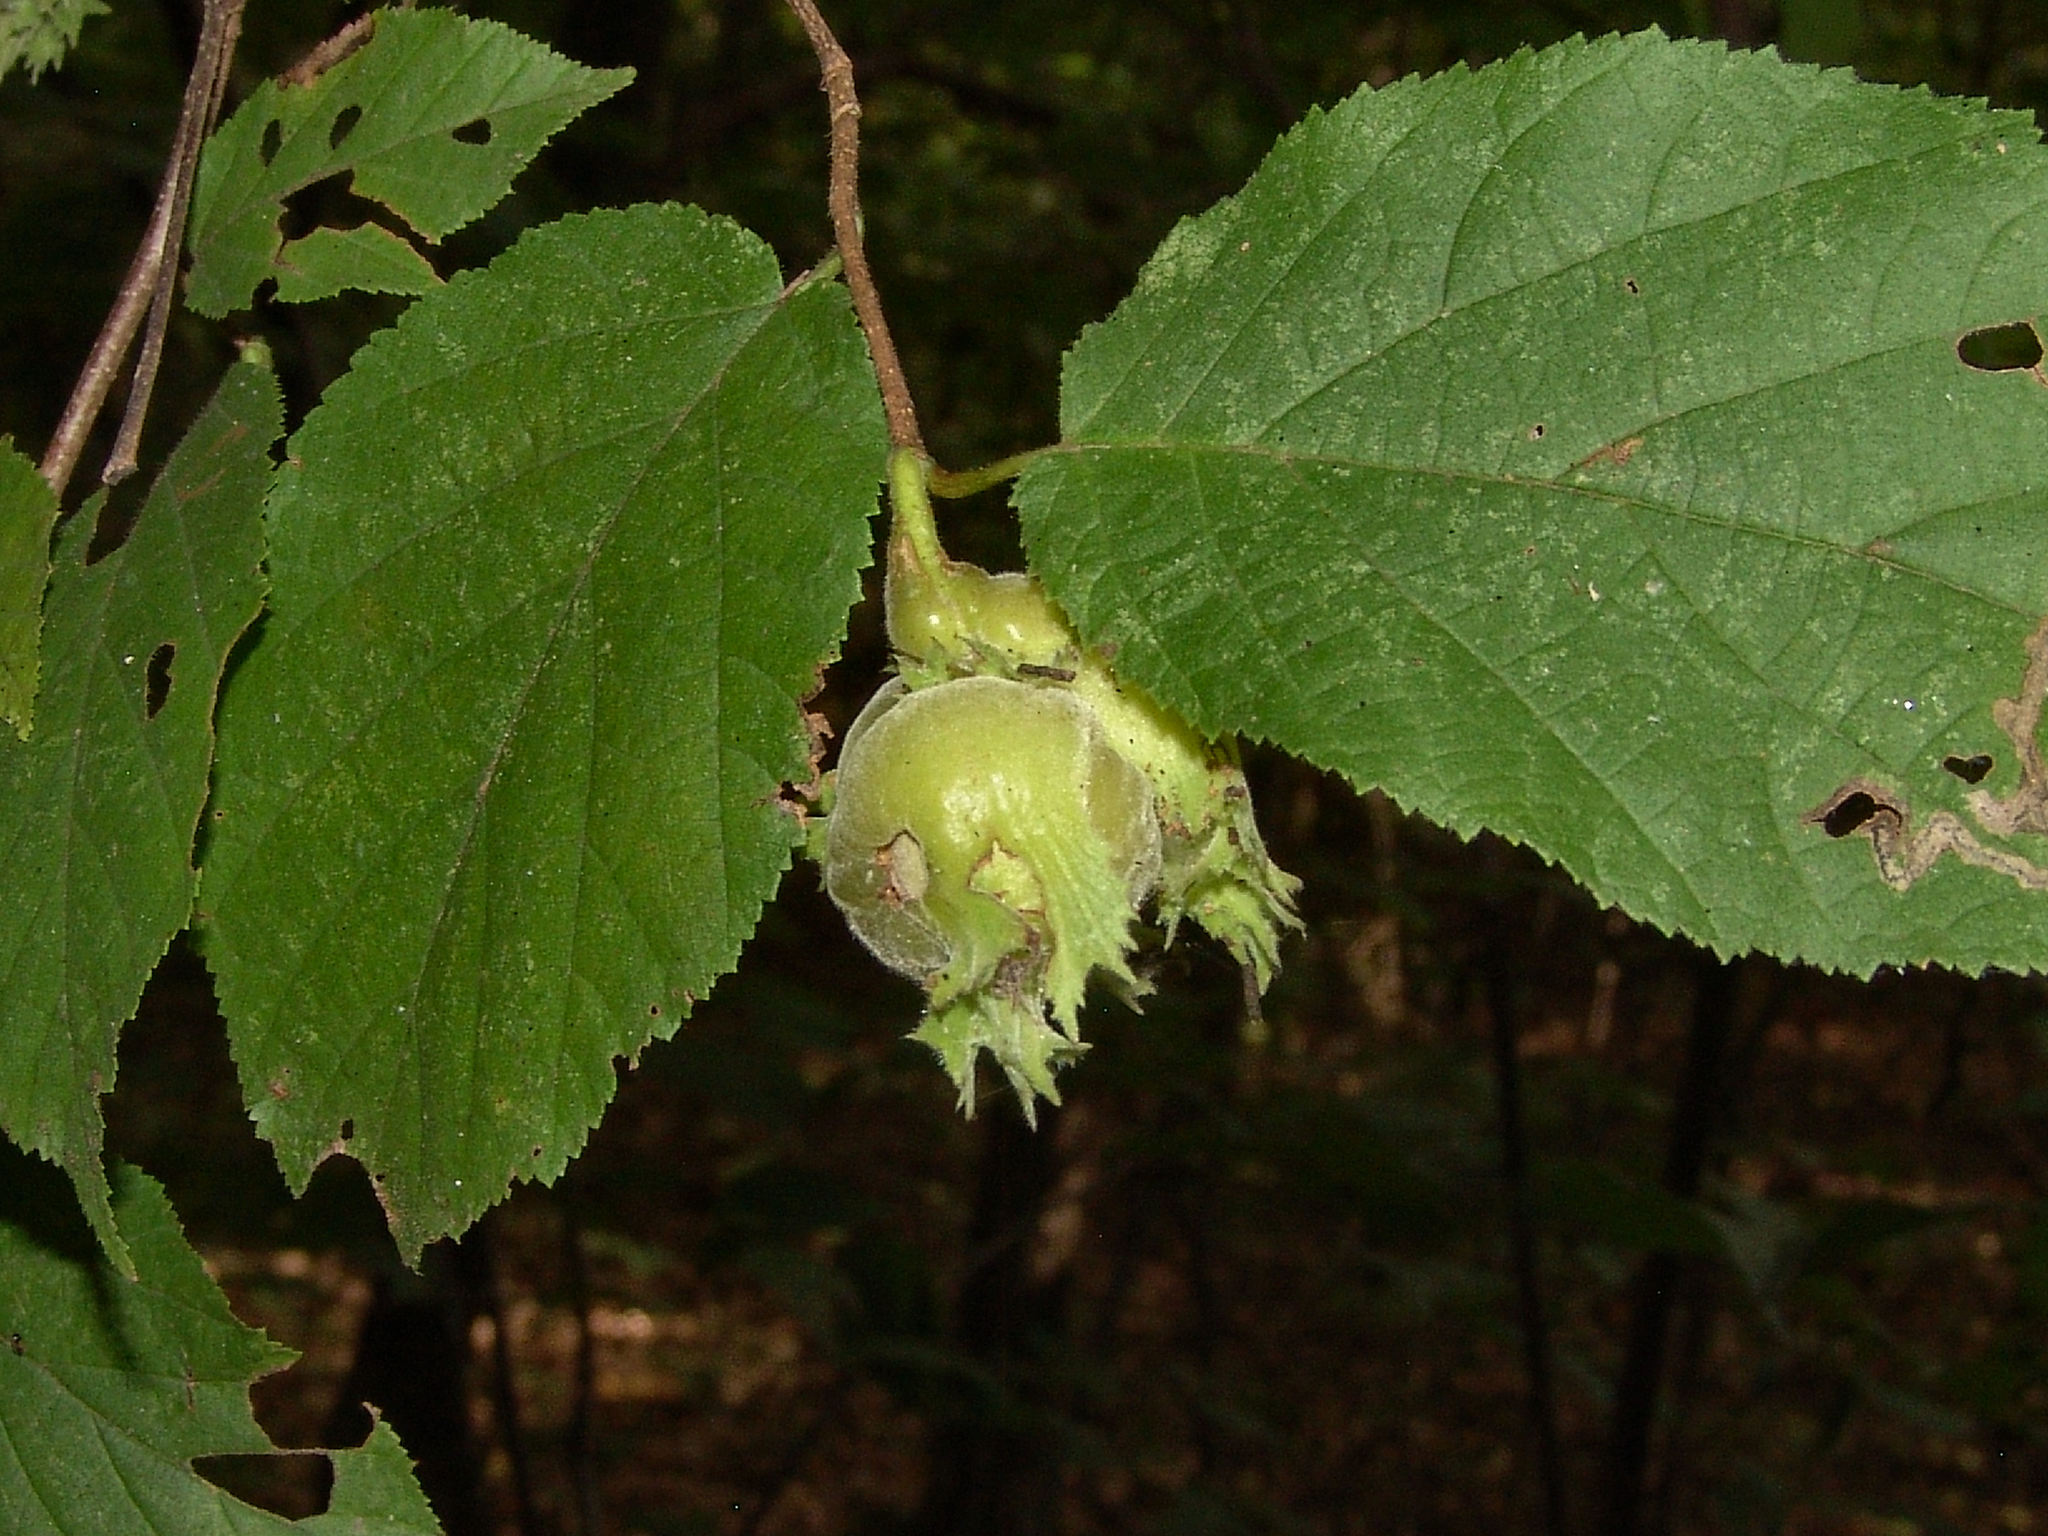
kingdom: Plantae
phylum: Tracheophyta
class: Magnoliopsida
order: Fagales
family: Betulaceae
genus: Corylus
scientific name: Corylus americana
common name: American hazel
